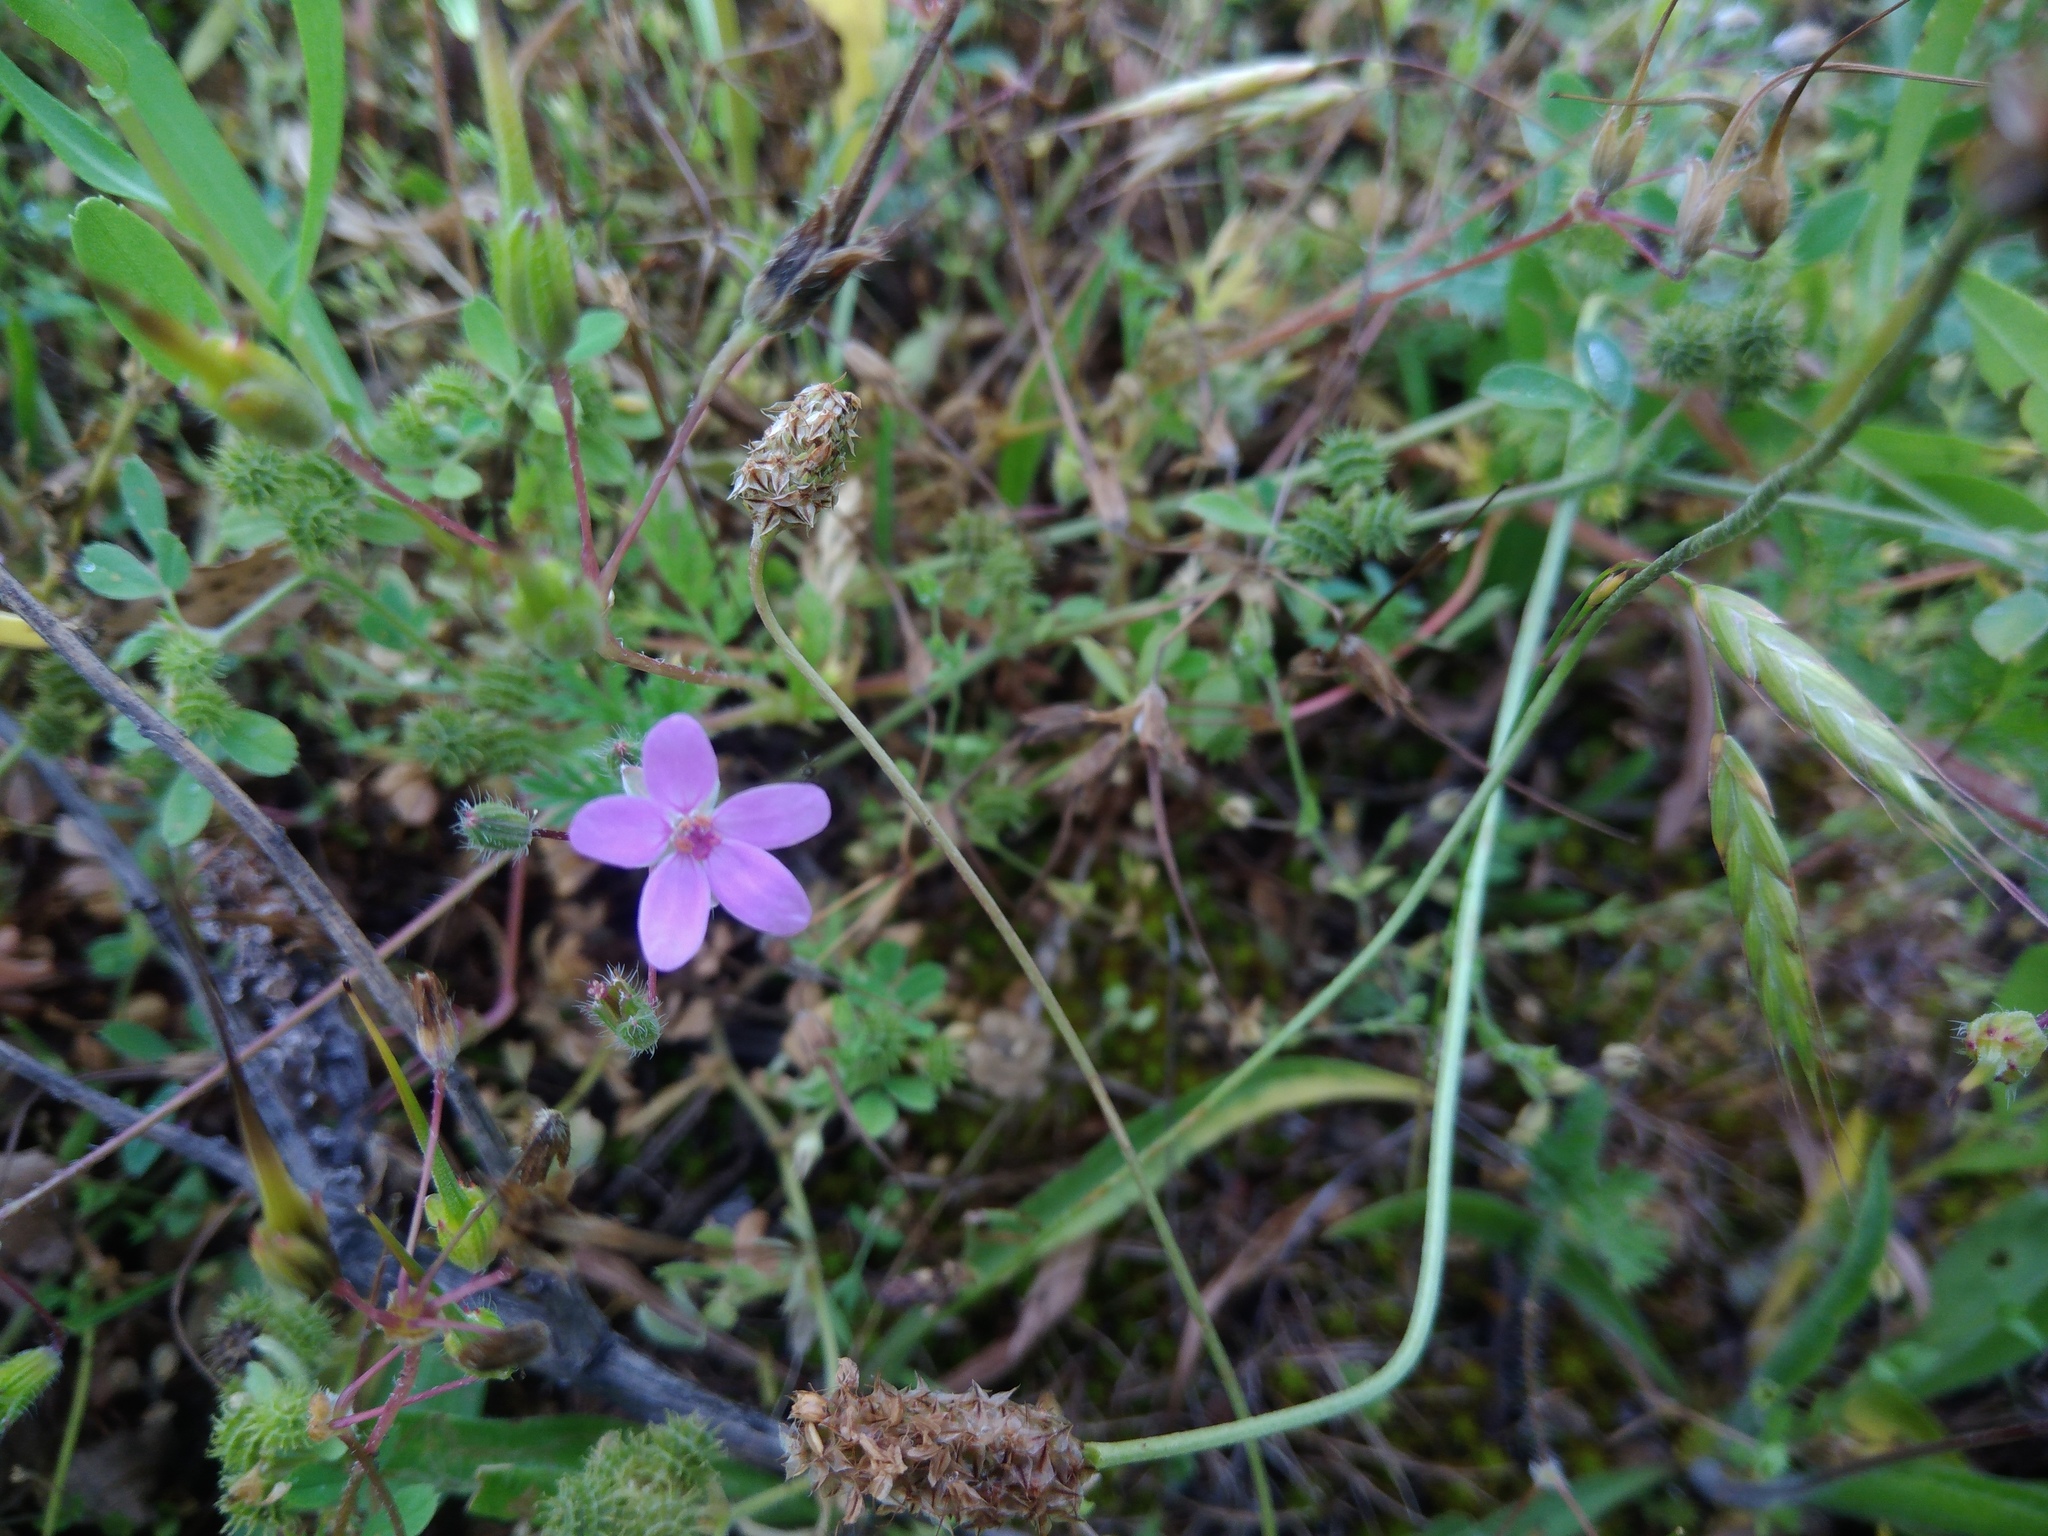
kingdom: Plantae
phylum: Tracheophyta
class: Magnoliopsida
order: Geraniales
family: Geraniaceae
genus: Erodium
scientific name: Erodium cicutarium
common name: Common stork's-bill
